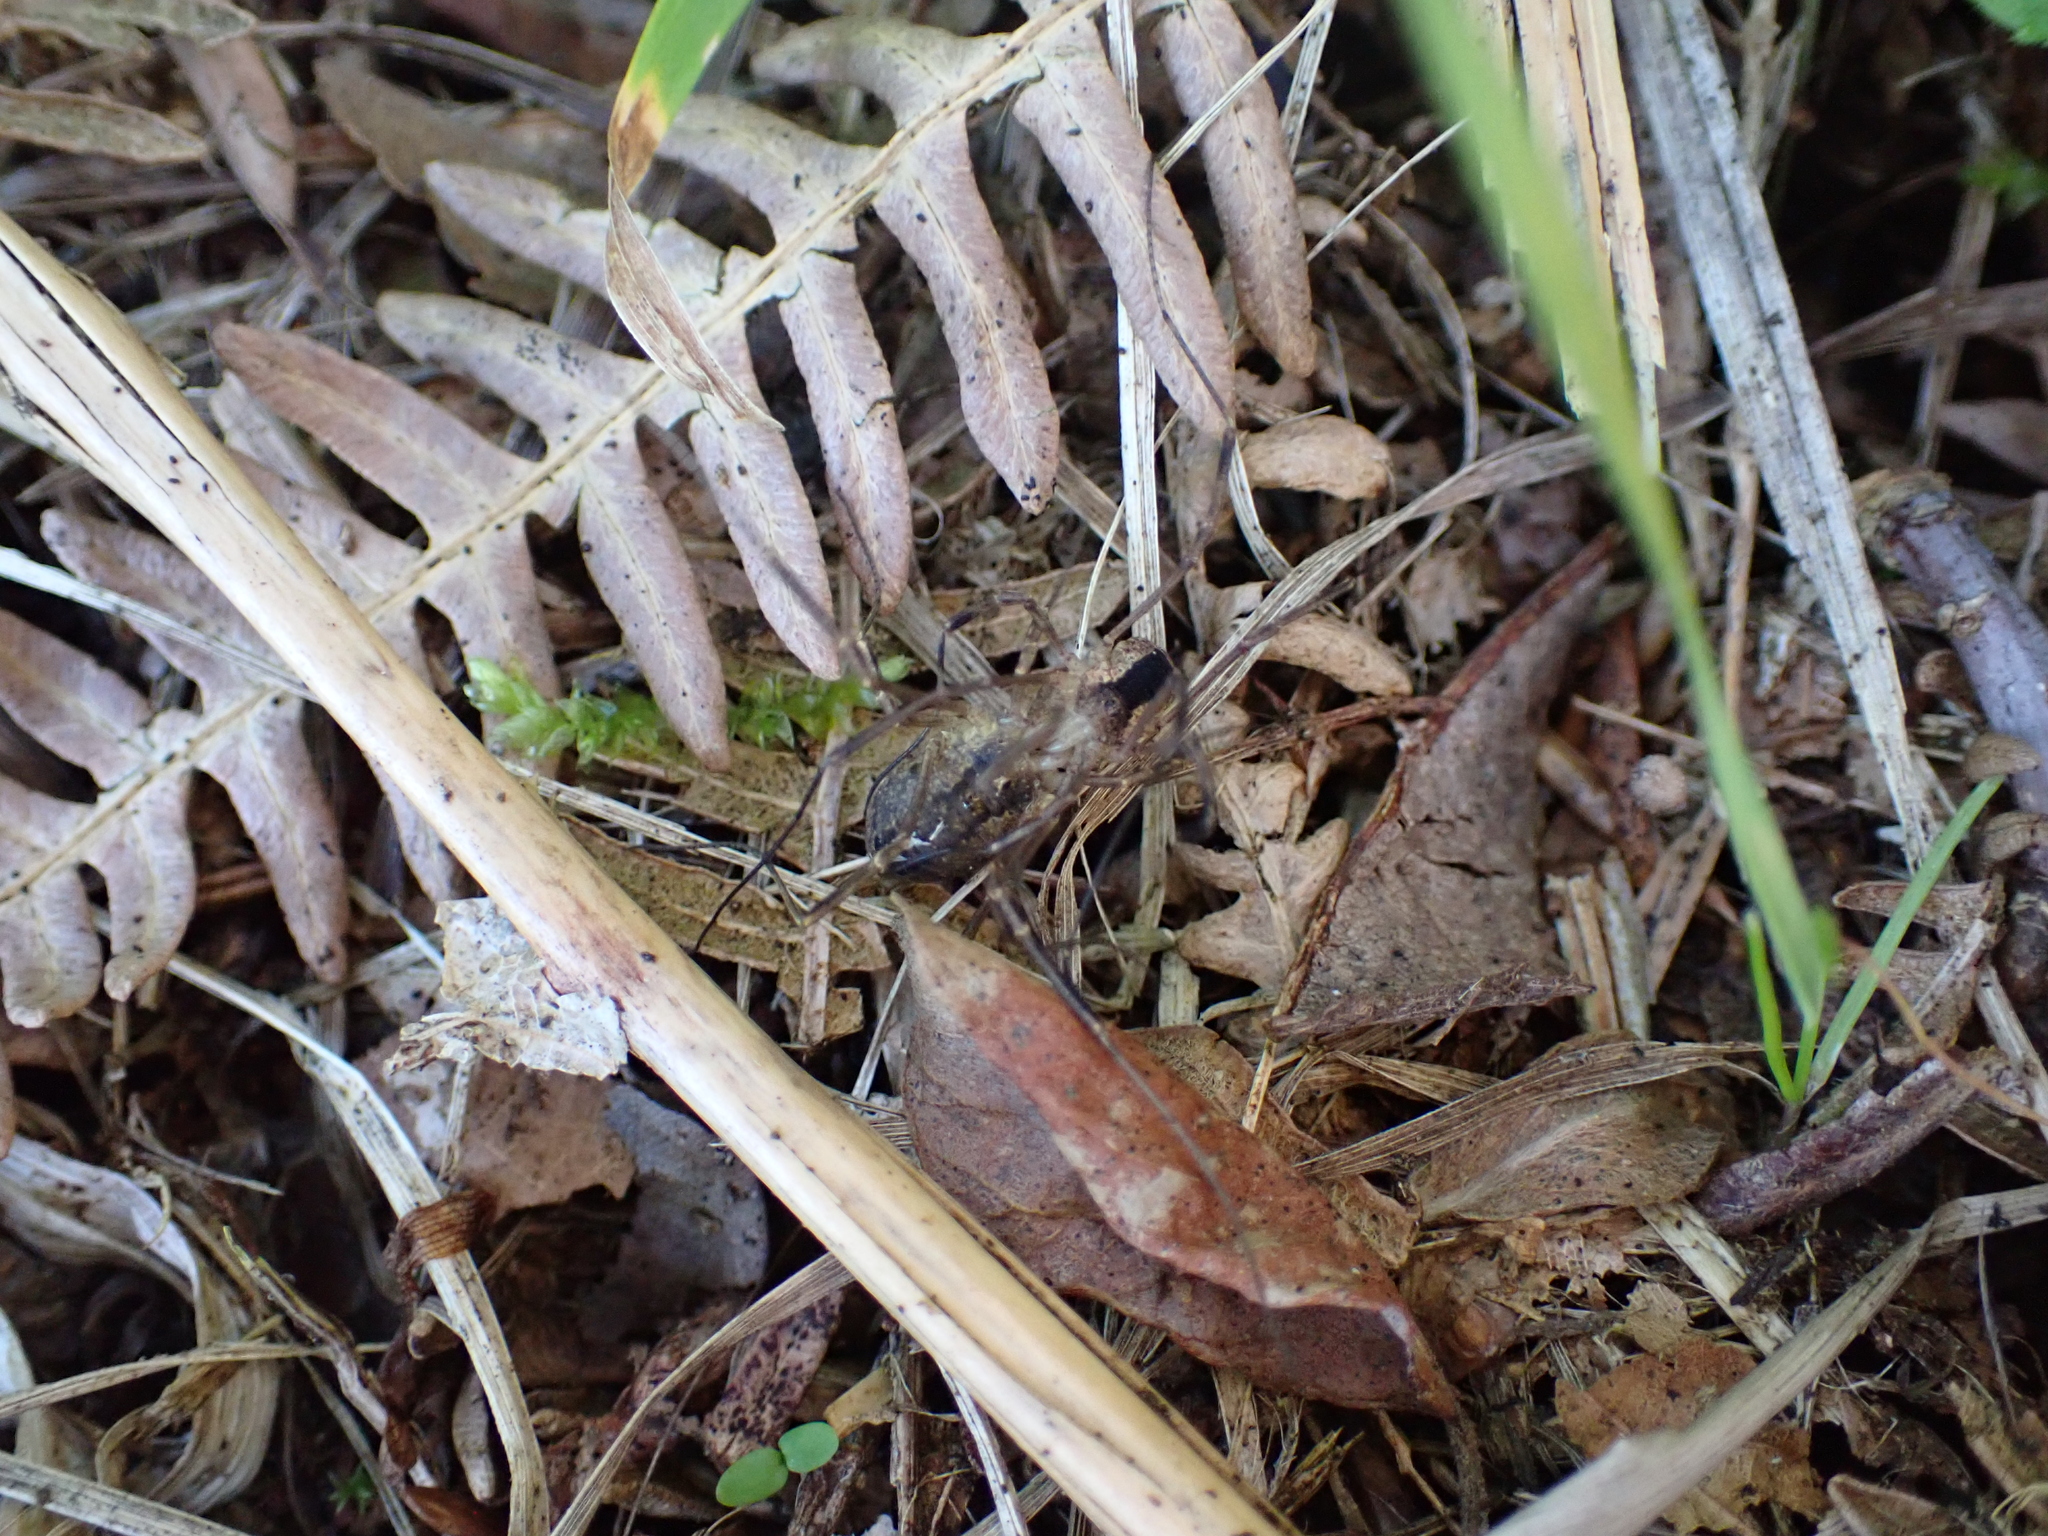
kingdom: Animalia
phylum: Arthropoda
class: Arachnida
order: Opiliones
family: Phalangiidae
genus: Lacinius
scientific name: Lacinius ephippiatus
